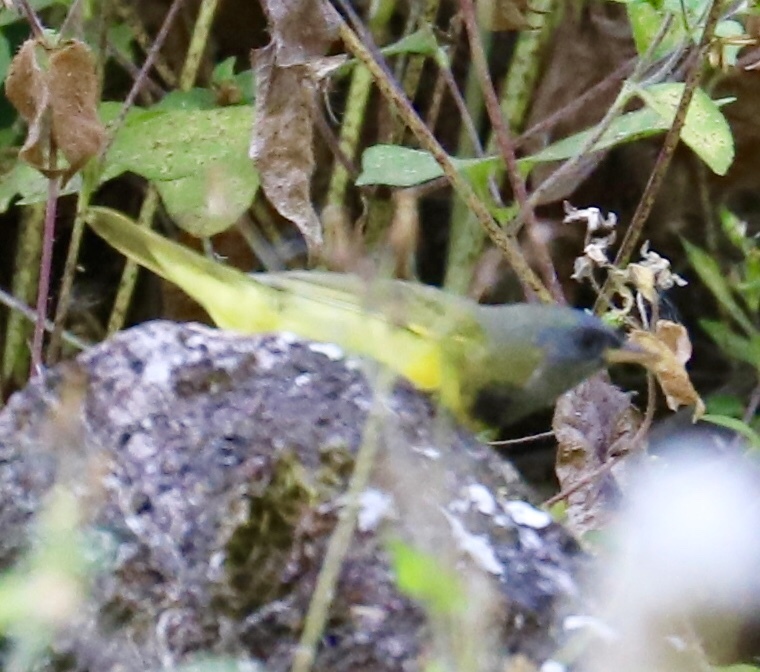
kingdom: Animalia
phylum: Chordata
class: Aves
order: Passeriformes
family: Parulidae
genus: Geothlypis
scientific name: Geothlypis philadelphia
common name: Mourning warbler
